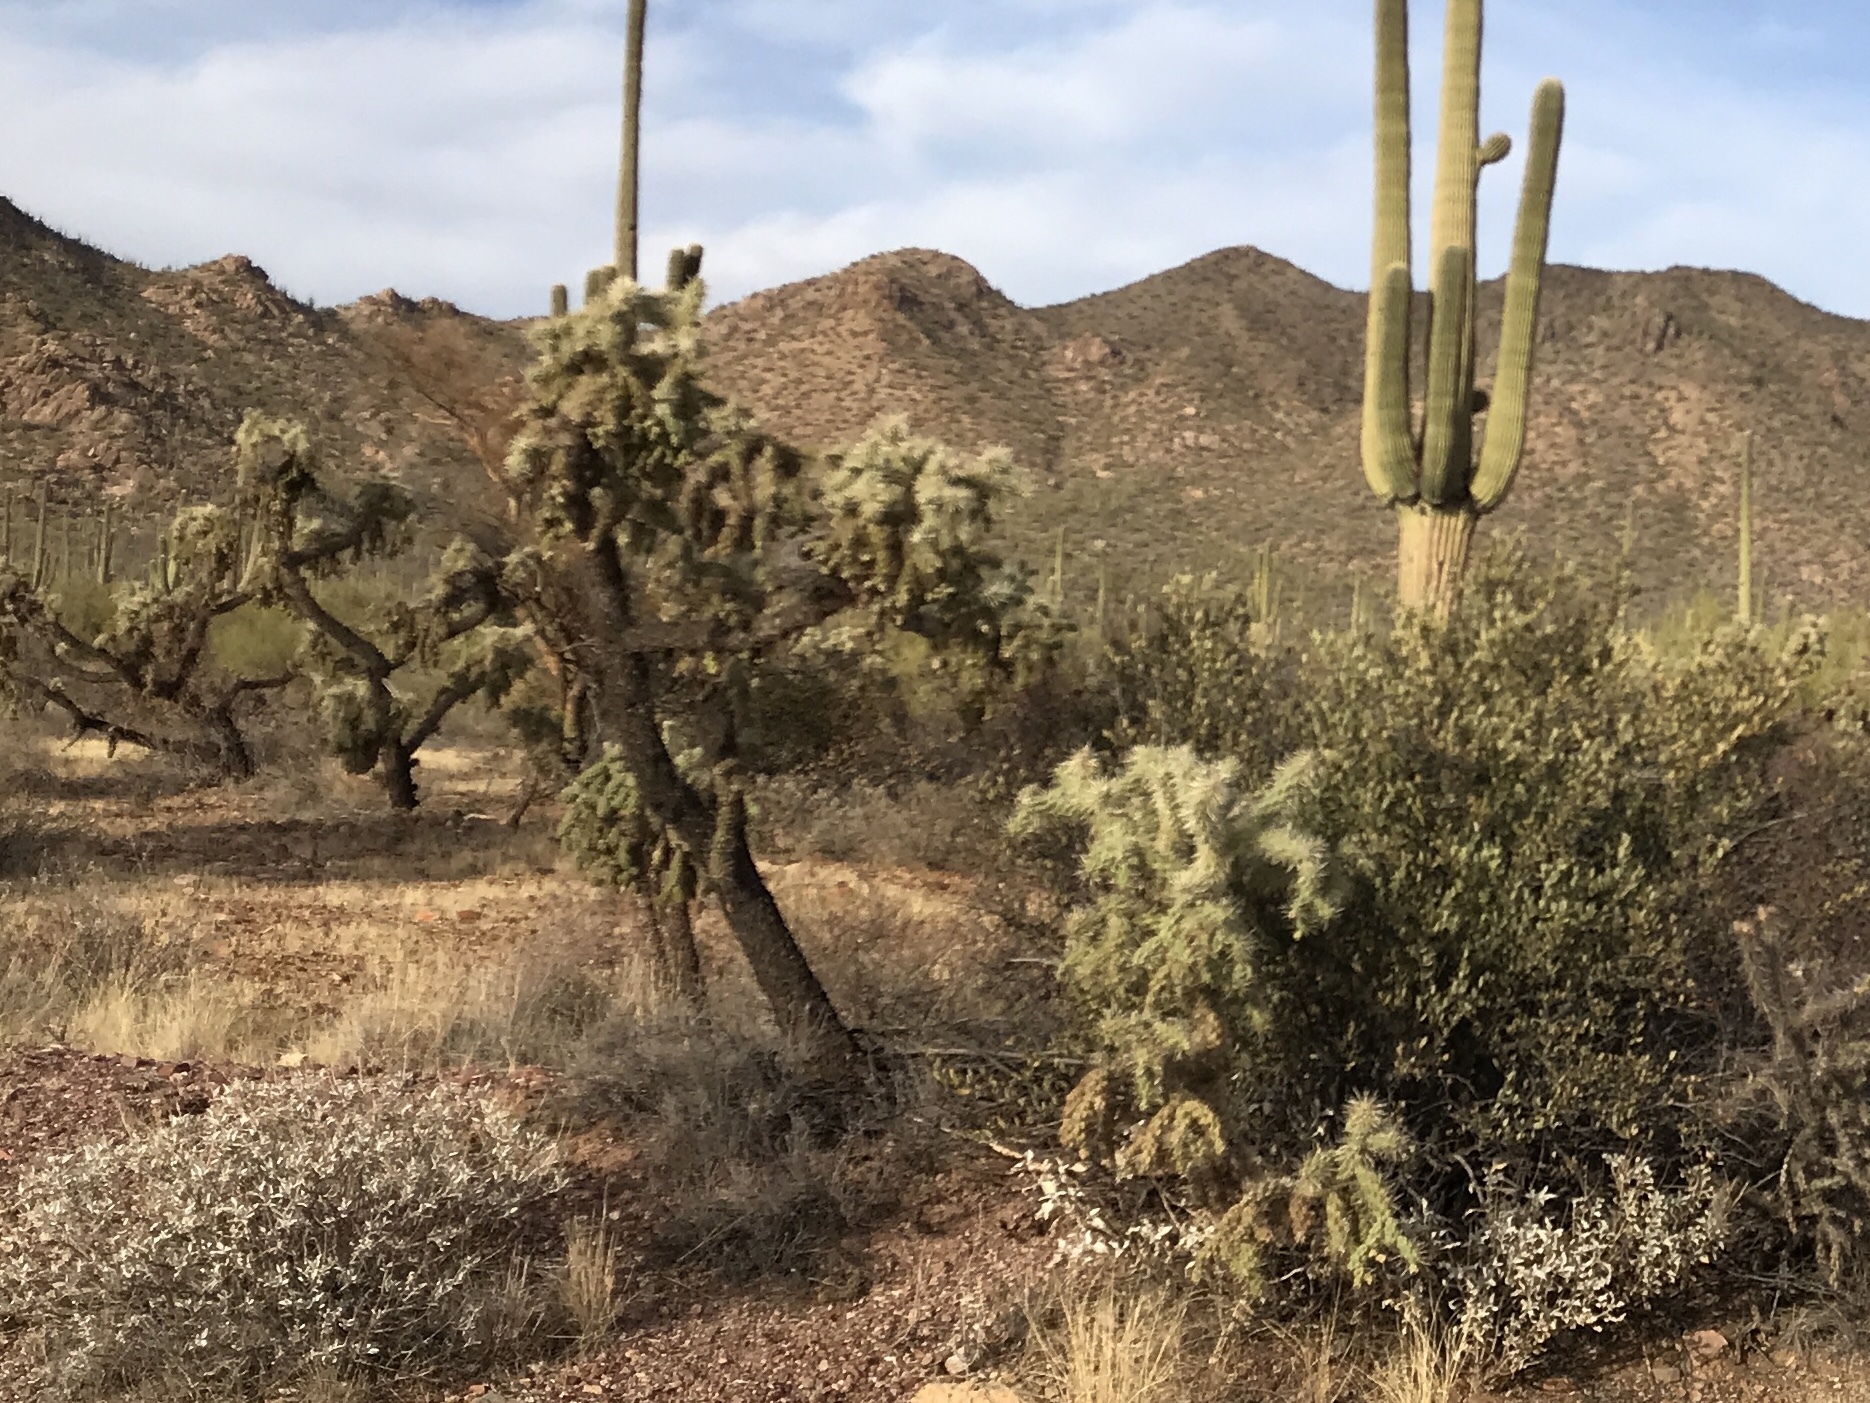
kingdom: Plantae
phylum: Tracheophyta
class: Magnoliopsida
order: Caryophyllales
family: Cactaceae
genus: Cylindropuntia
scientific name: Cylindropuntia fulgida
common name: Jumping cholla
